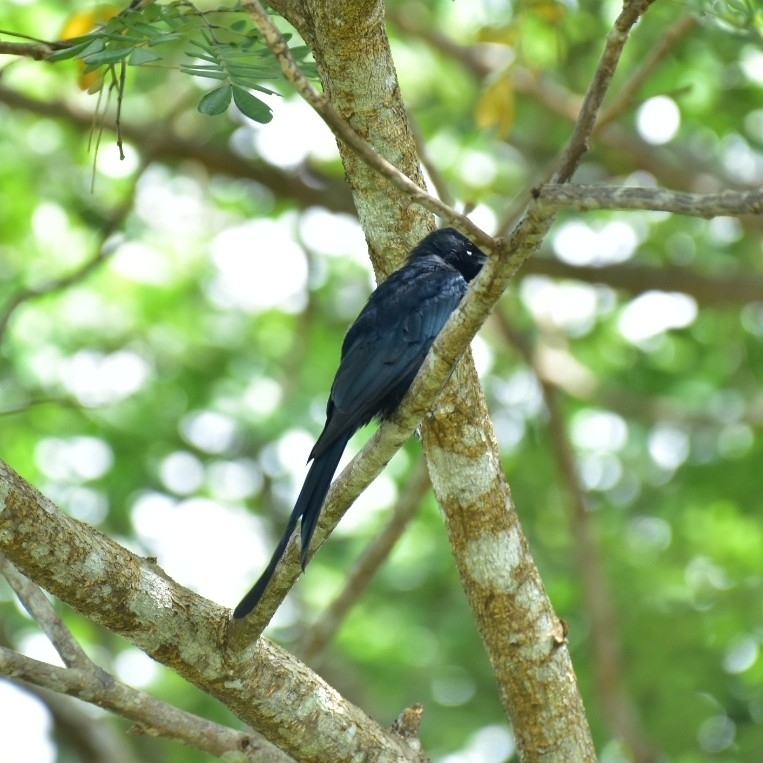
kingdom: Animalia
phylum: Chordata
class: Aves
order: Passeriformes
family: Dicruridae
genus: Dicrurus
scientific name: Dicrurus macrocercus
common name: Black drongo
